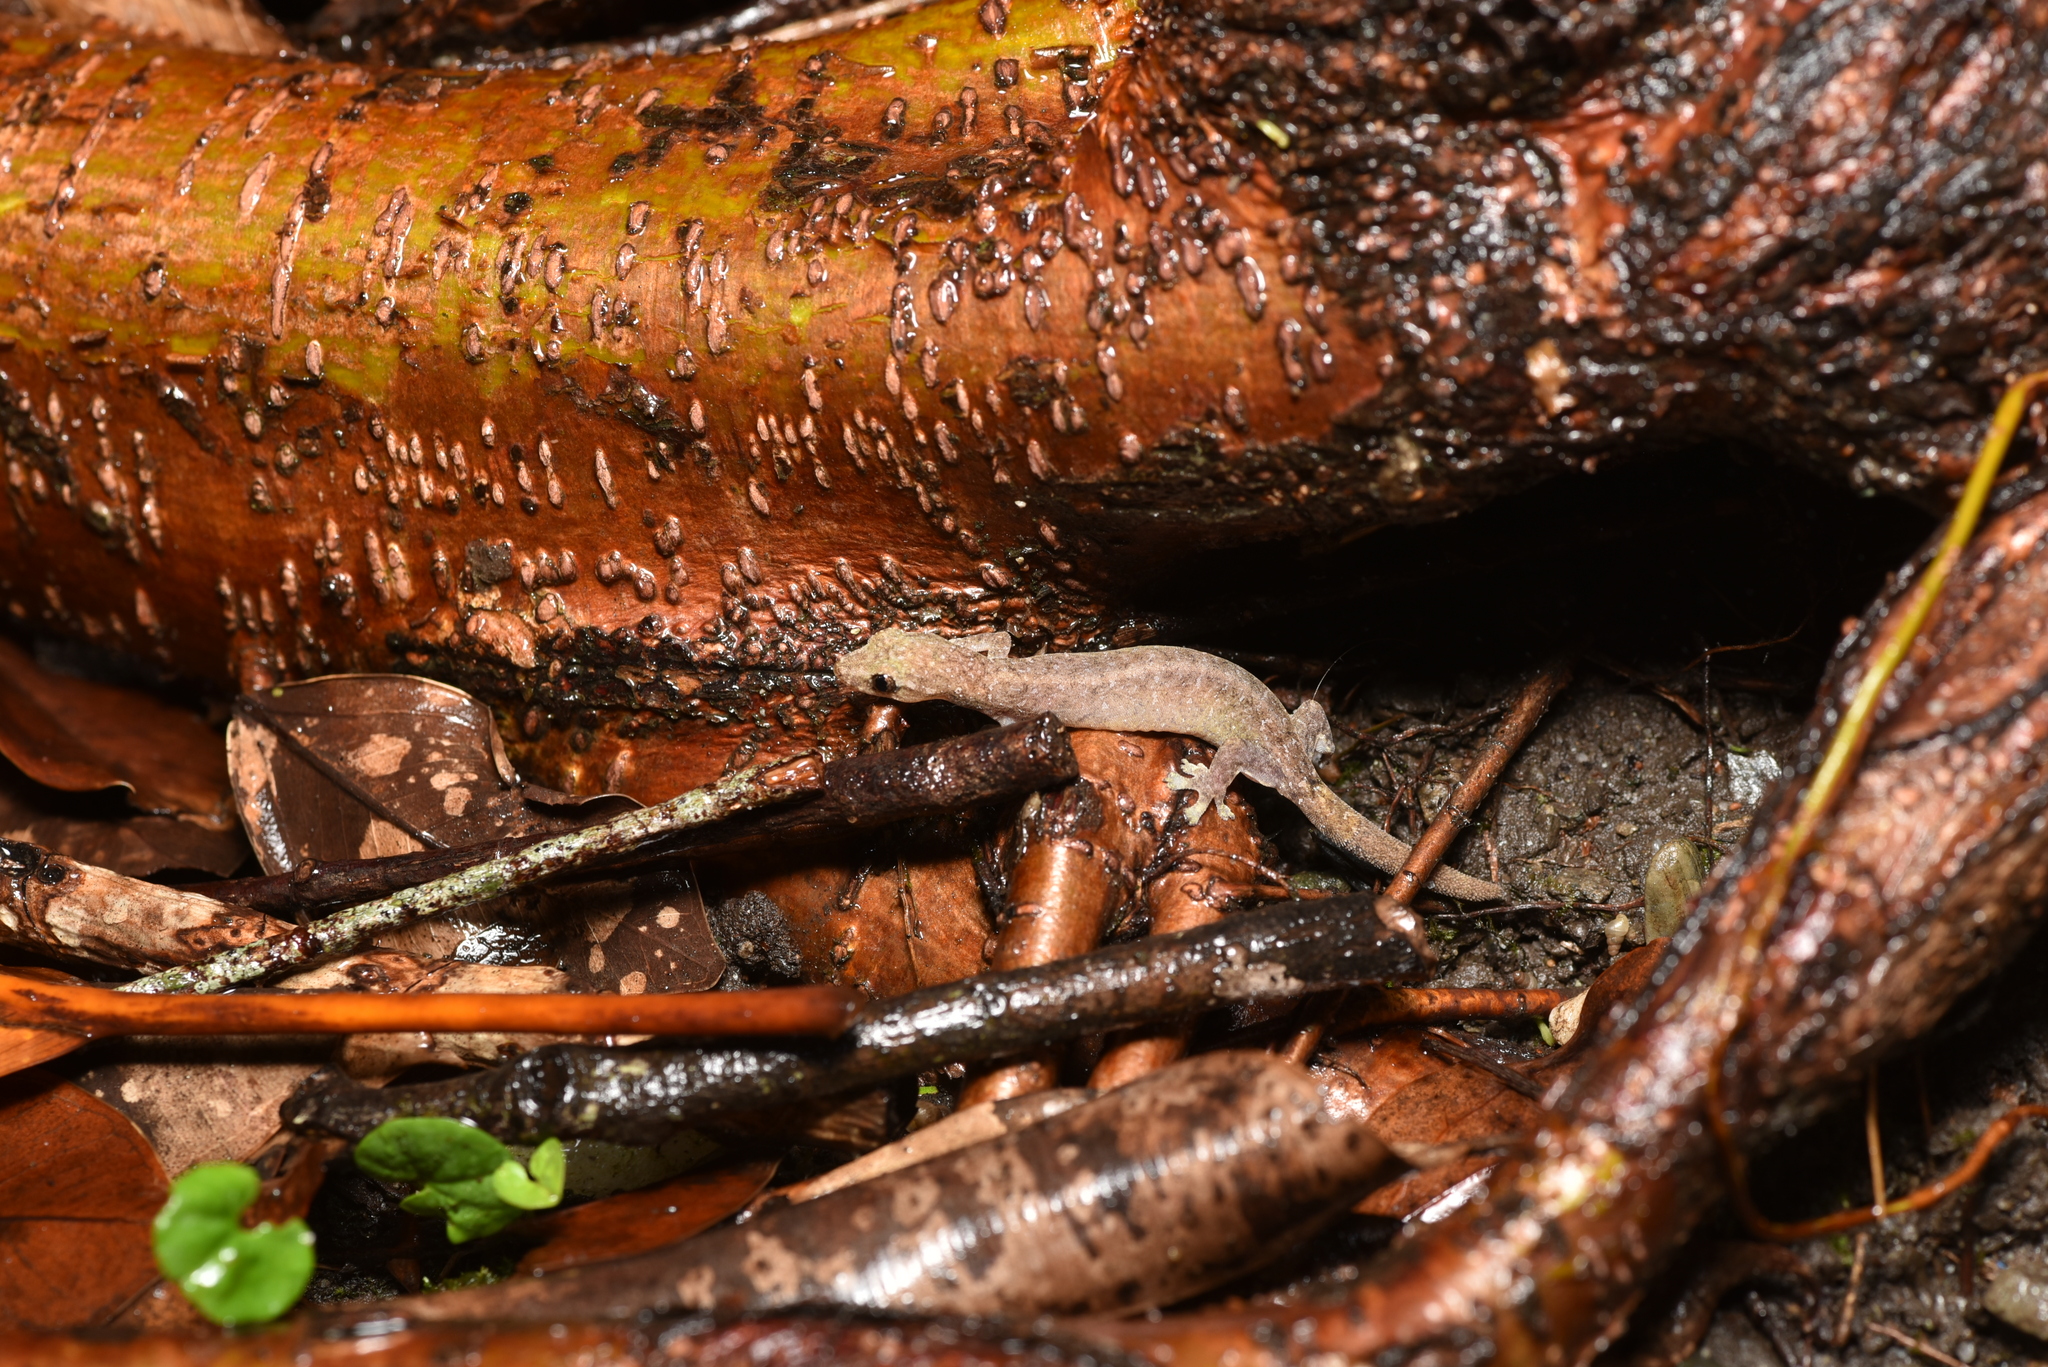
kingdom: Animalia
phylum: Chordata
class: Squamata
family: Gekkonidae
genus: Hemiphyllodactylus
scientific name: Hemiphyllodactylus typus
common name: Common dwarf gecko
